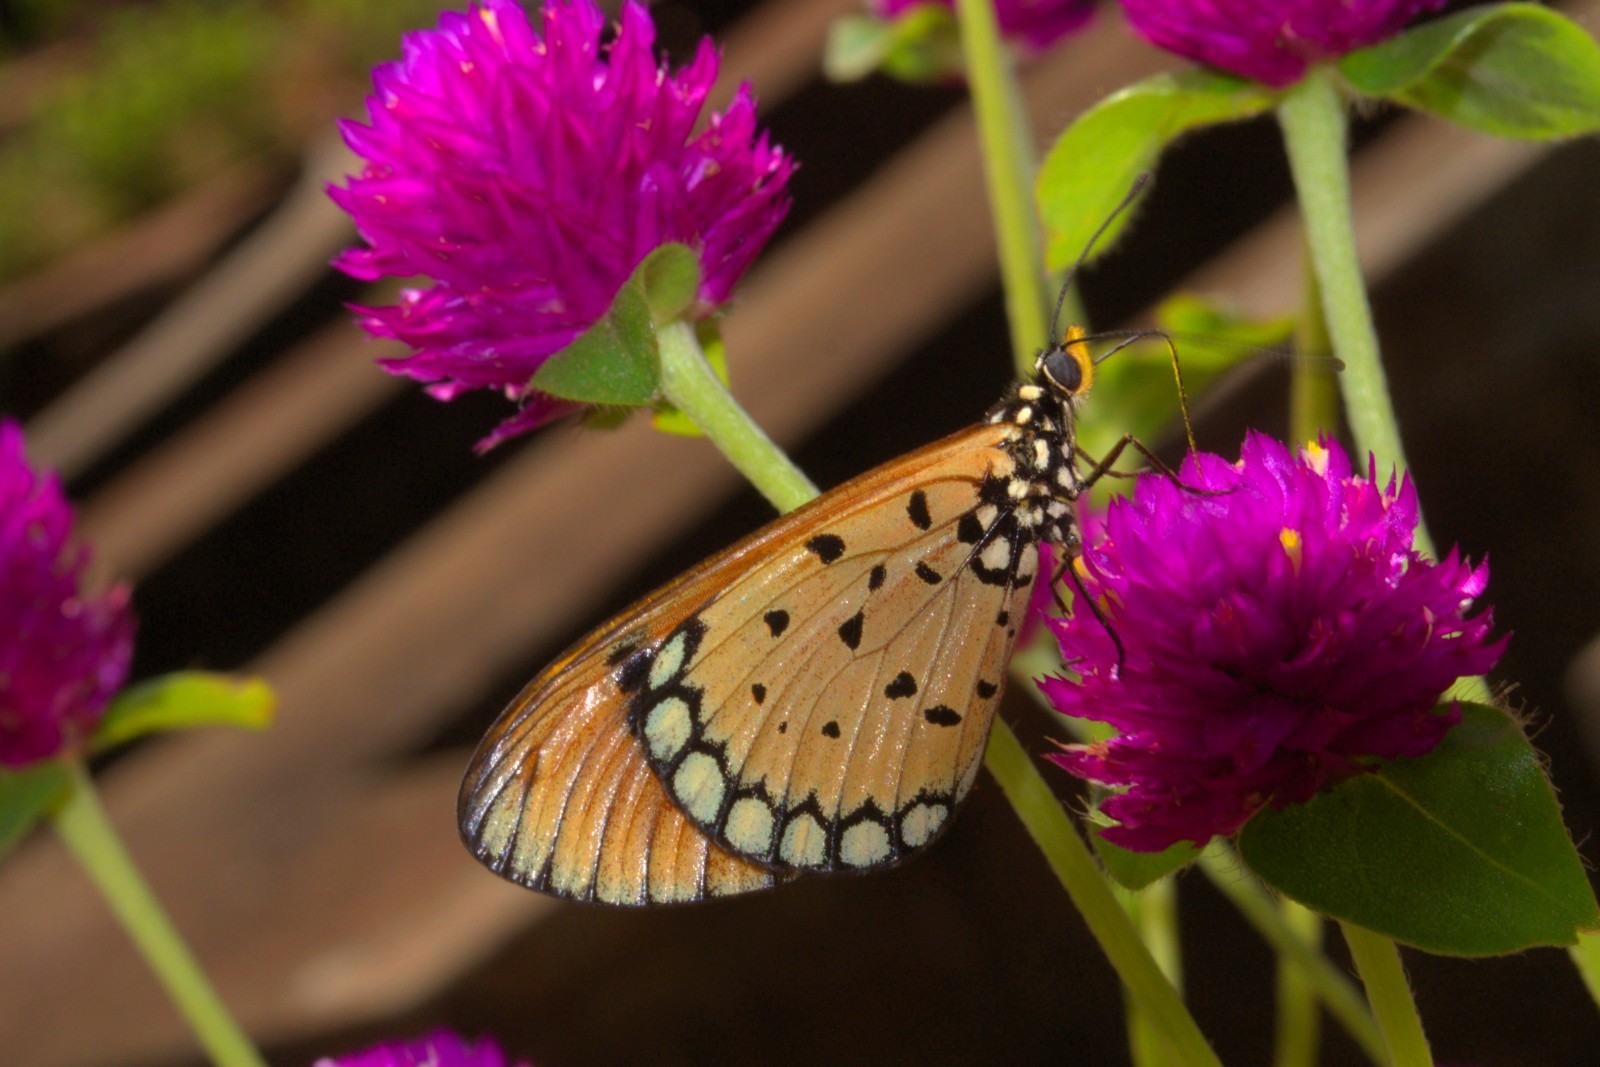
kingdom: Animalia
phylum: Arthropoda
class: Insecta
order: Lepidoptera
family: Nymphalidae
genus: Acraea
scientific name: Acraea terpsicore
